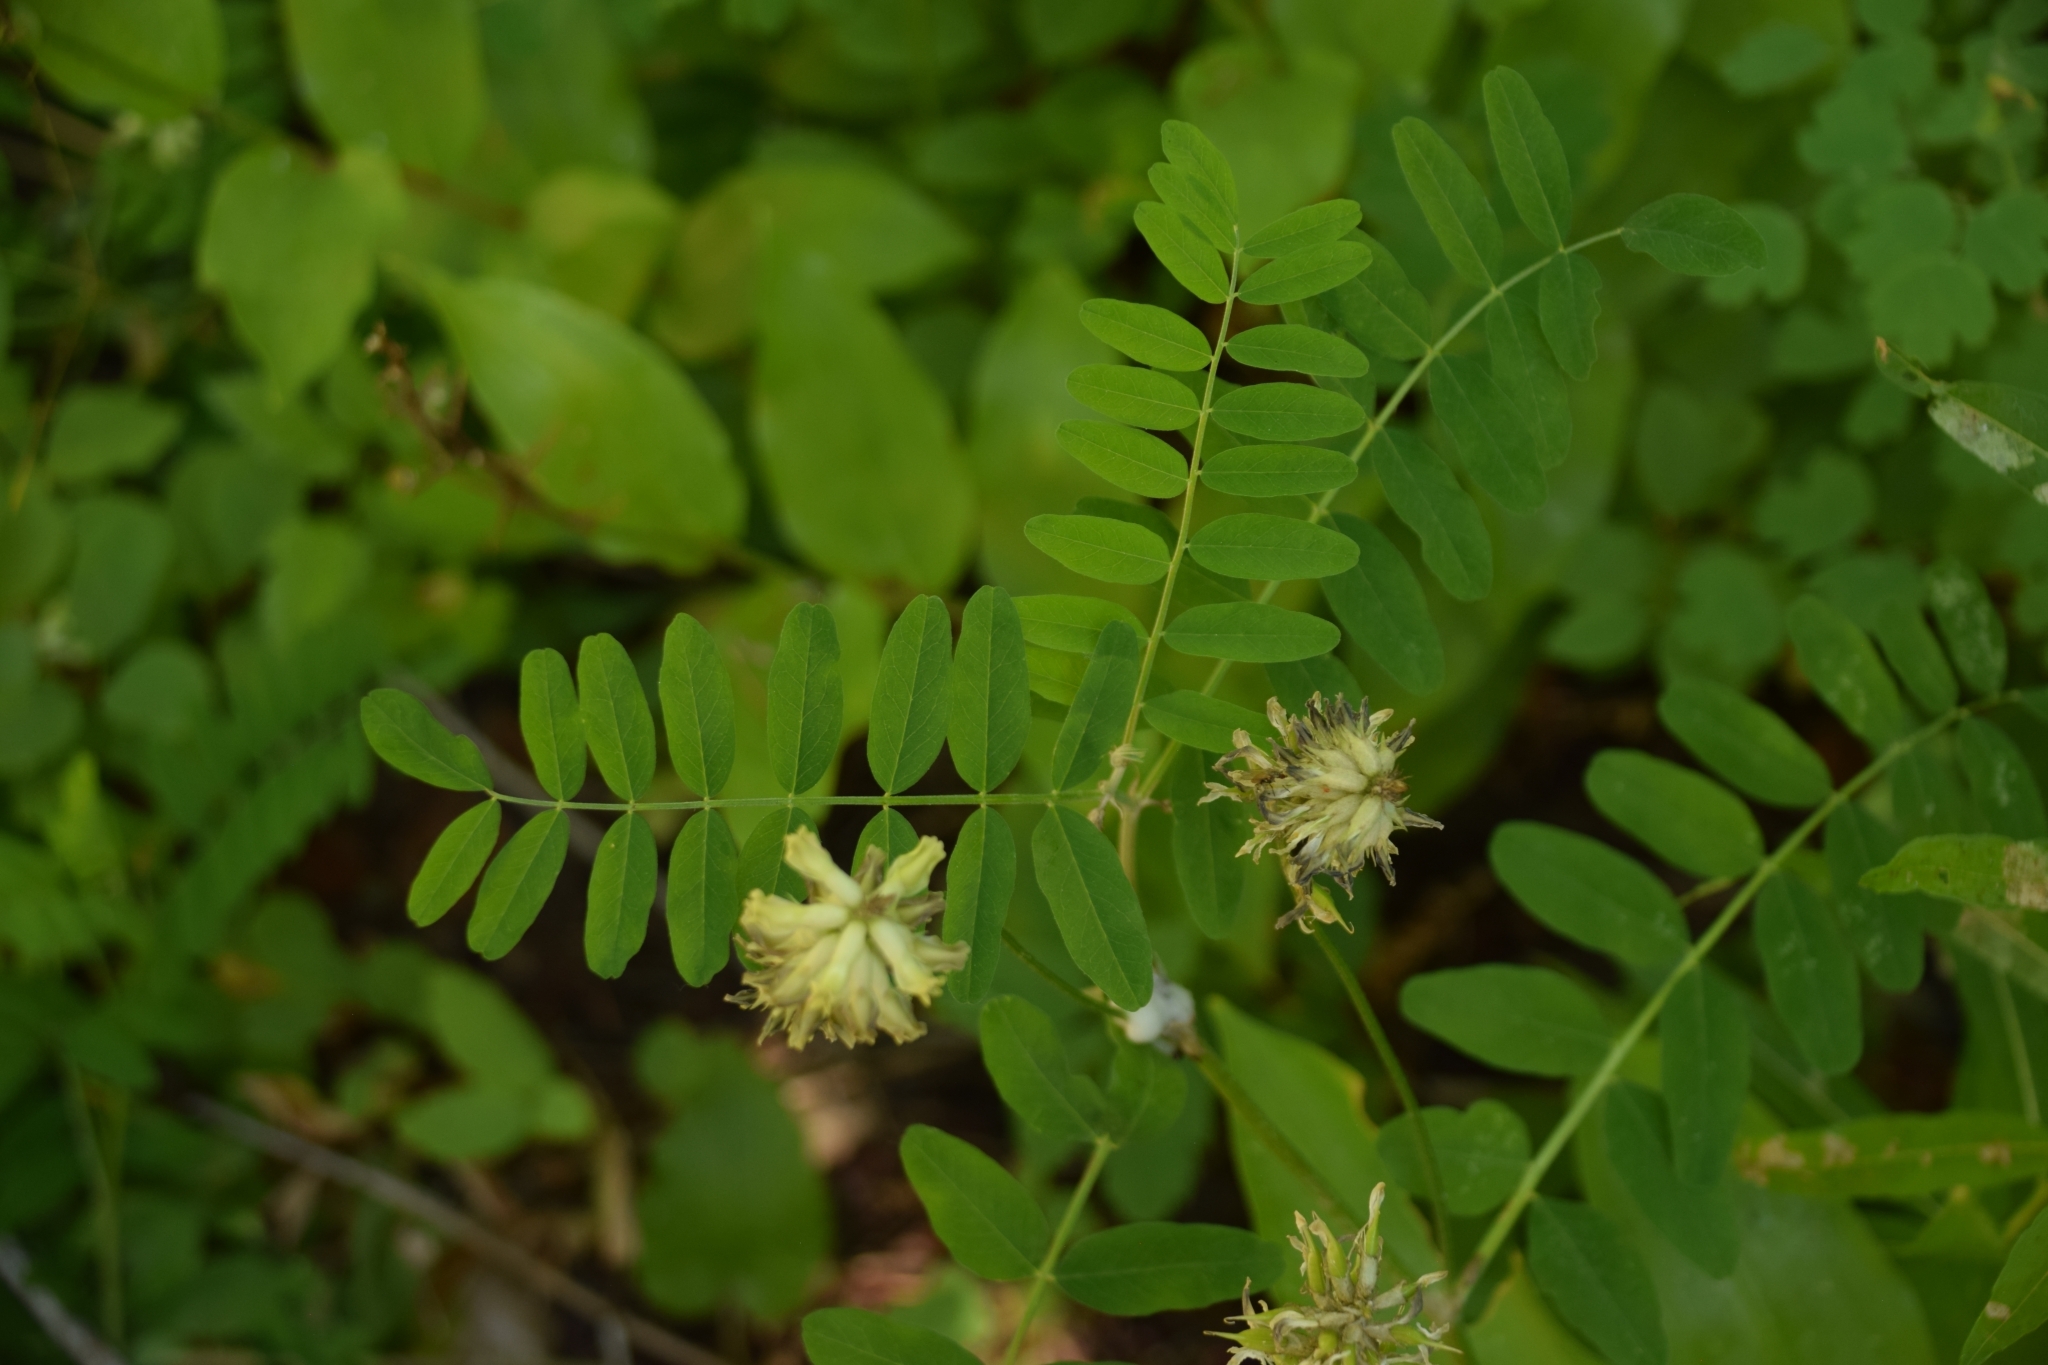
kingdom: Plantae
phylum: Tracheophyta
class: Magnoliopsida
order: Fabales
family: Fabaceae
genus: Astragalus
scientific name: Astragalus canadensis
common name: Canada milk-vetch
